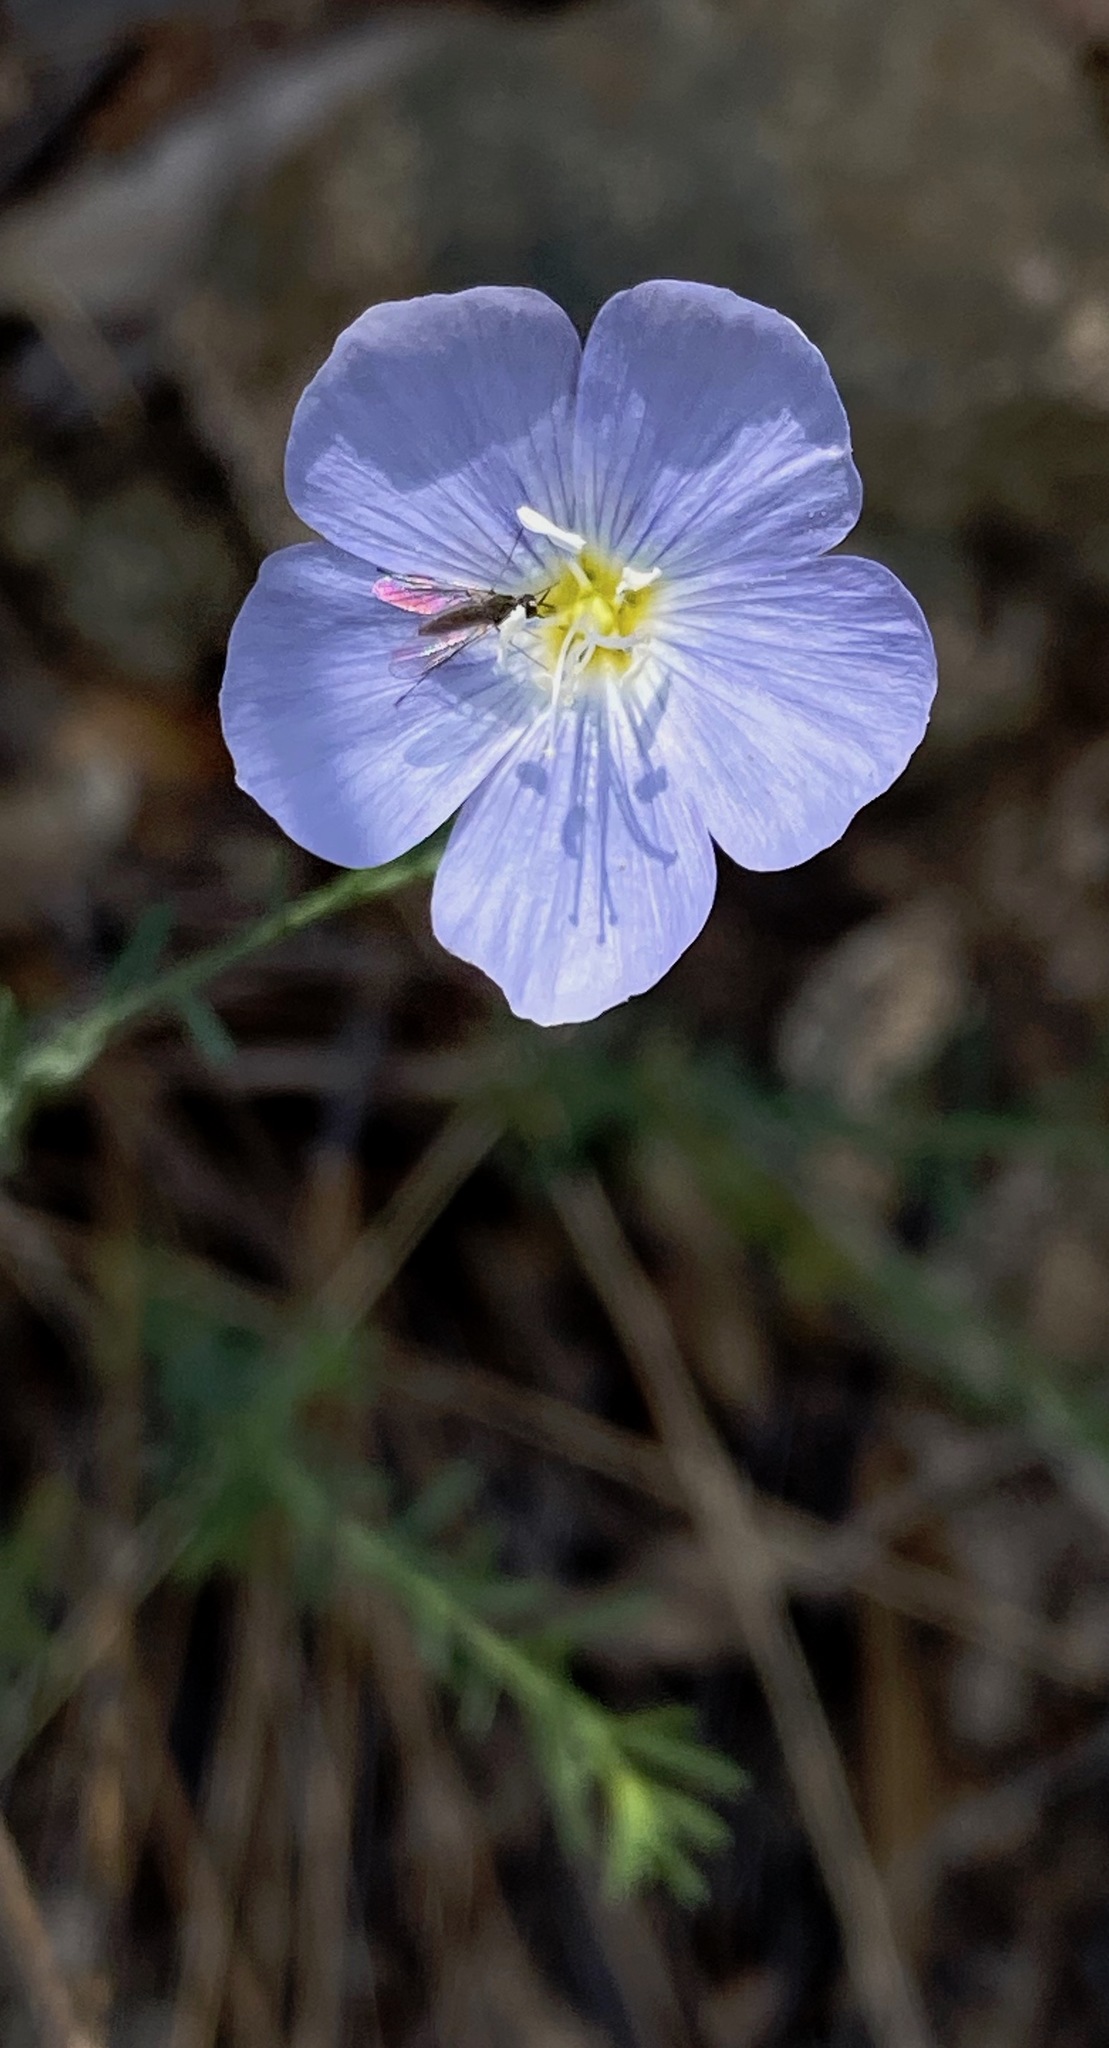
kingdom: Plantae
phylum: Tracheophyta
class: Magnoliopsida
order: Malpighiales
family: Linaceae
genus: Linum
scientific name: Linum lewisii
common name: Prairie flax
